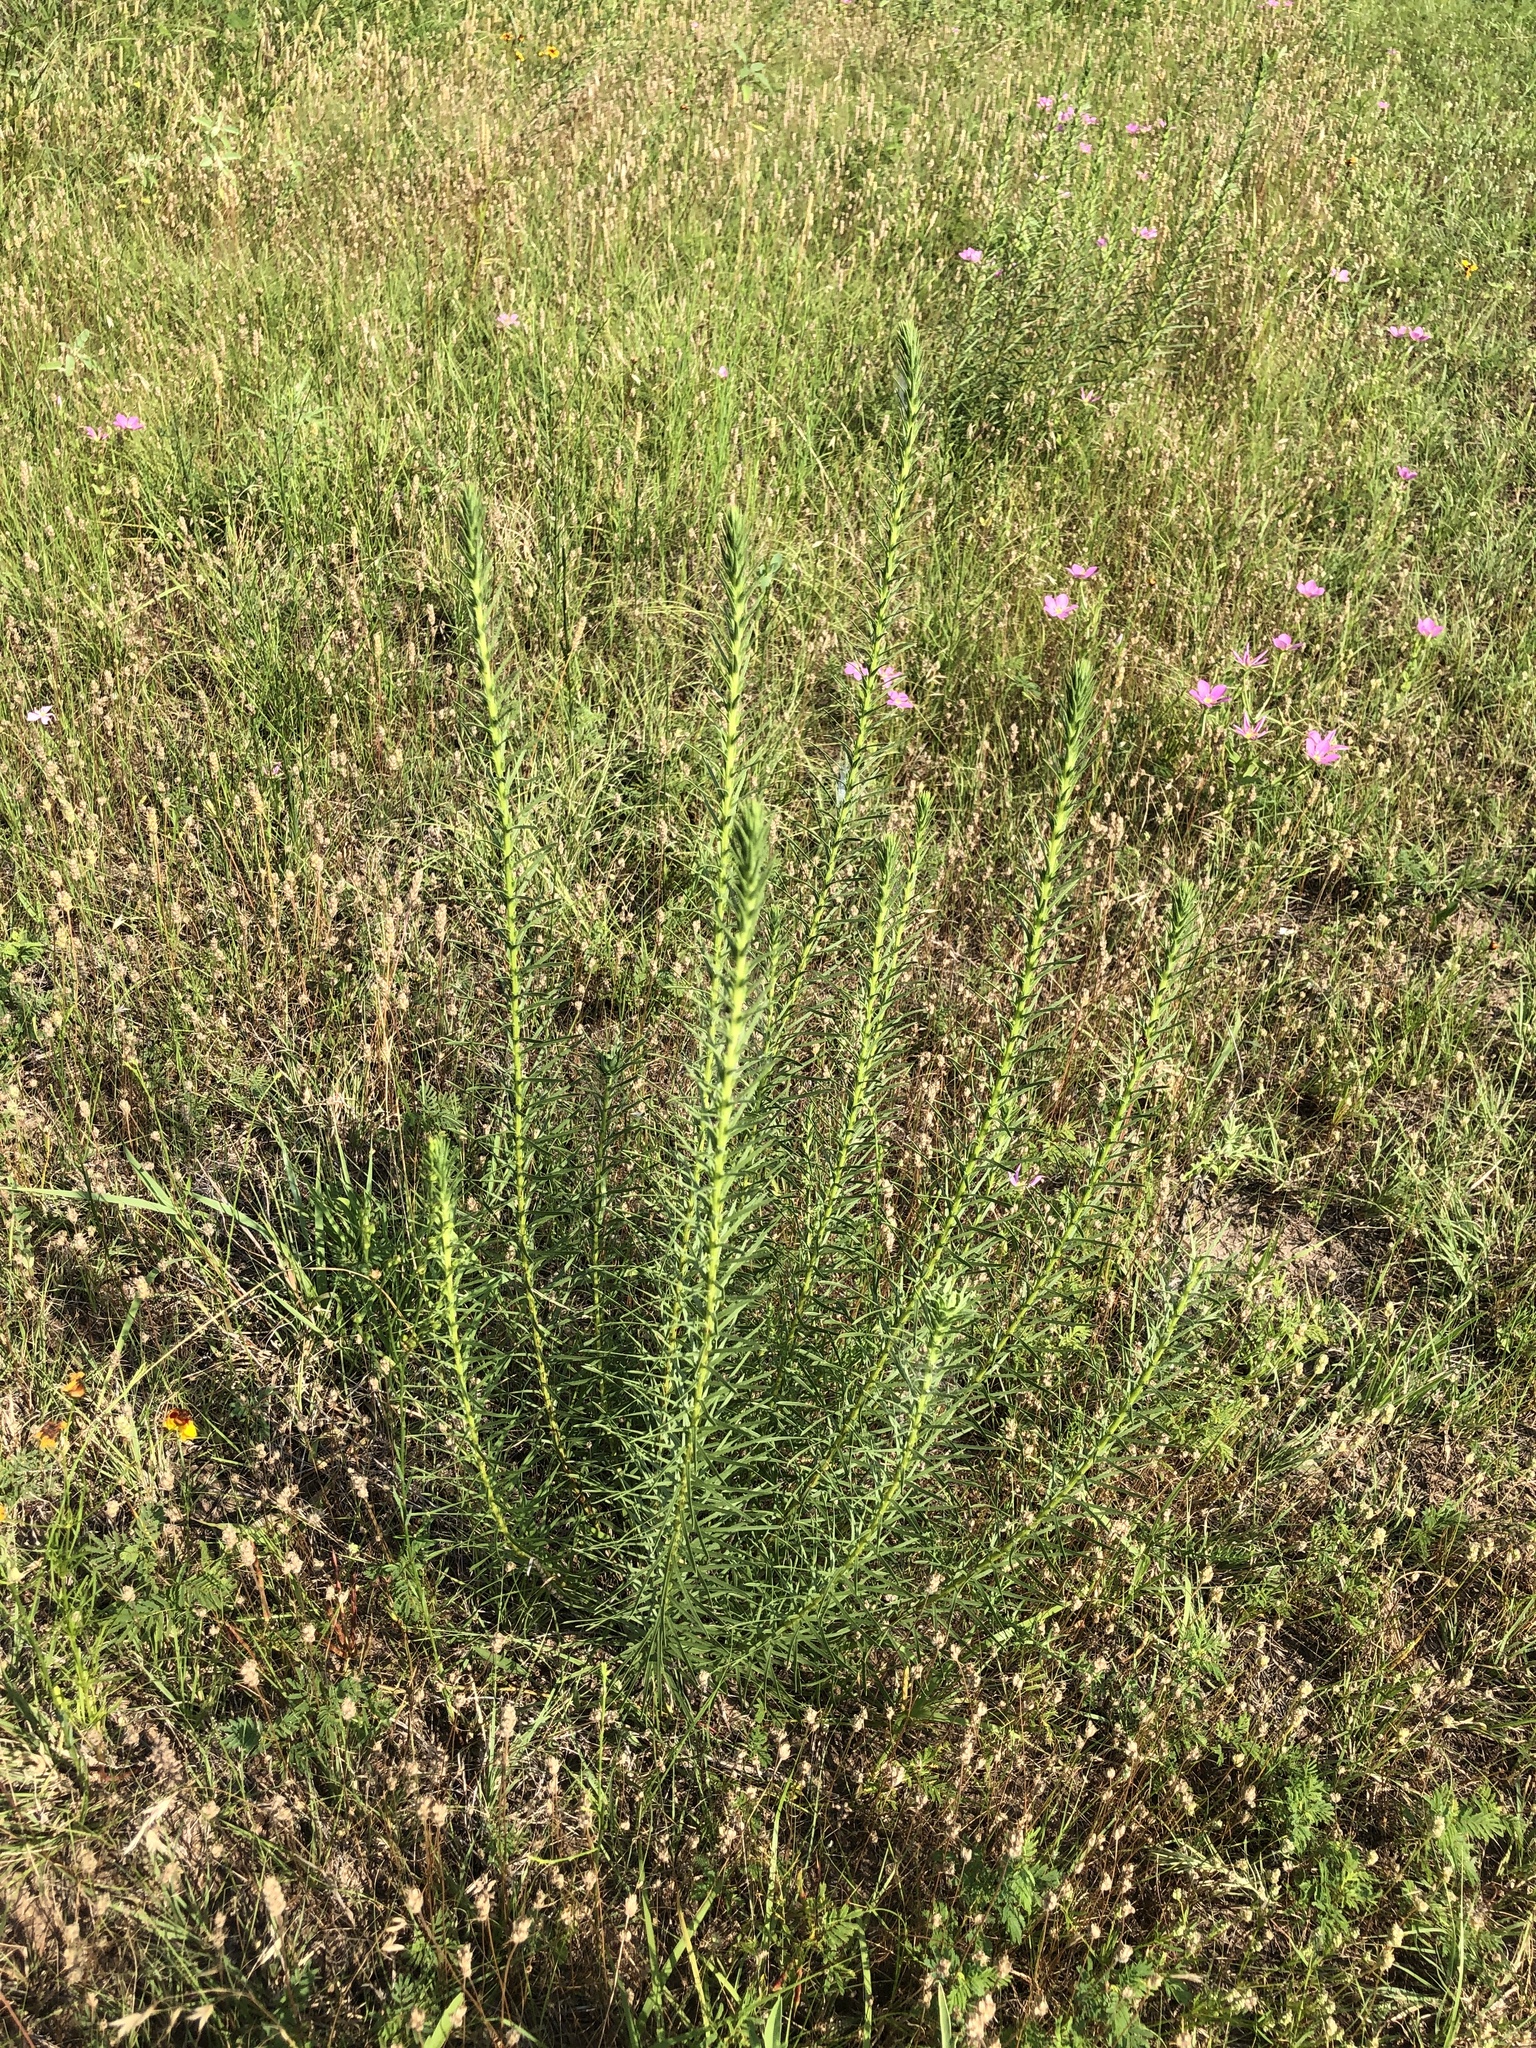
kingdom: Plantae
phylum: Tracheophyta
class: Magnoliopsida
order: Asterales
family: Asteraceae
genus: Liatris
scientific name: Liatris punctata
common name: Dotted gayfeather
